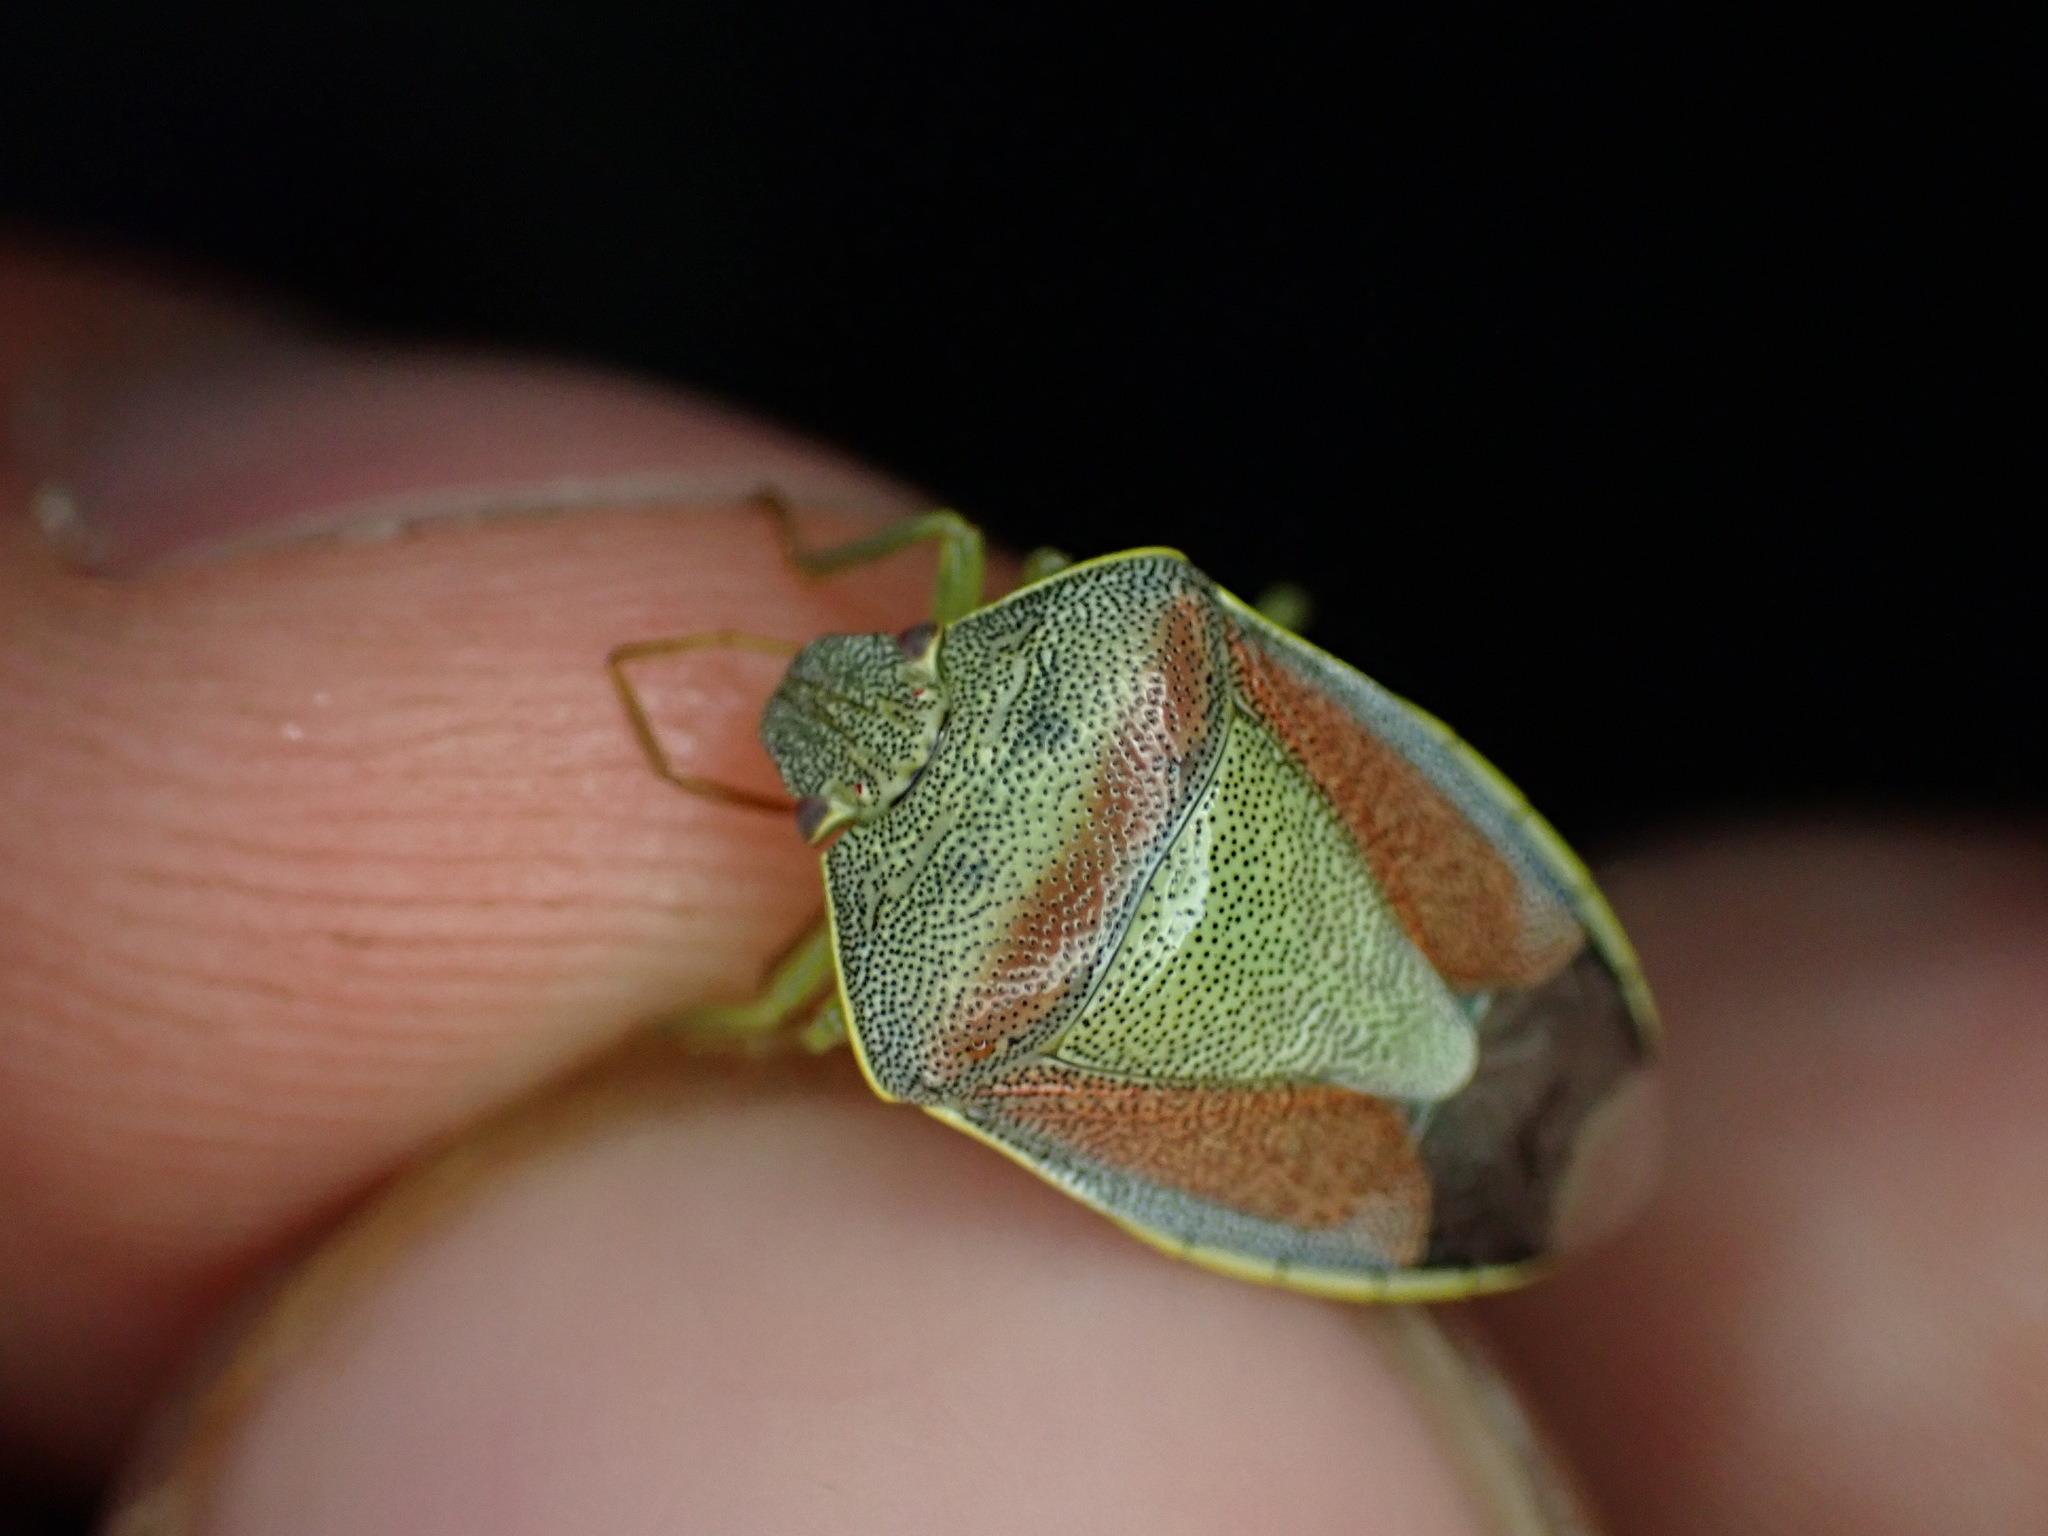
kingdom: Animalia
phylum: Arthropoda
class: Insecta
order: Hemiptera
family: Pentatomidae
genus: Piezodorus
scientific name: Piezodorus lituratus
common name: Stink bug
